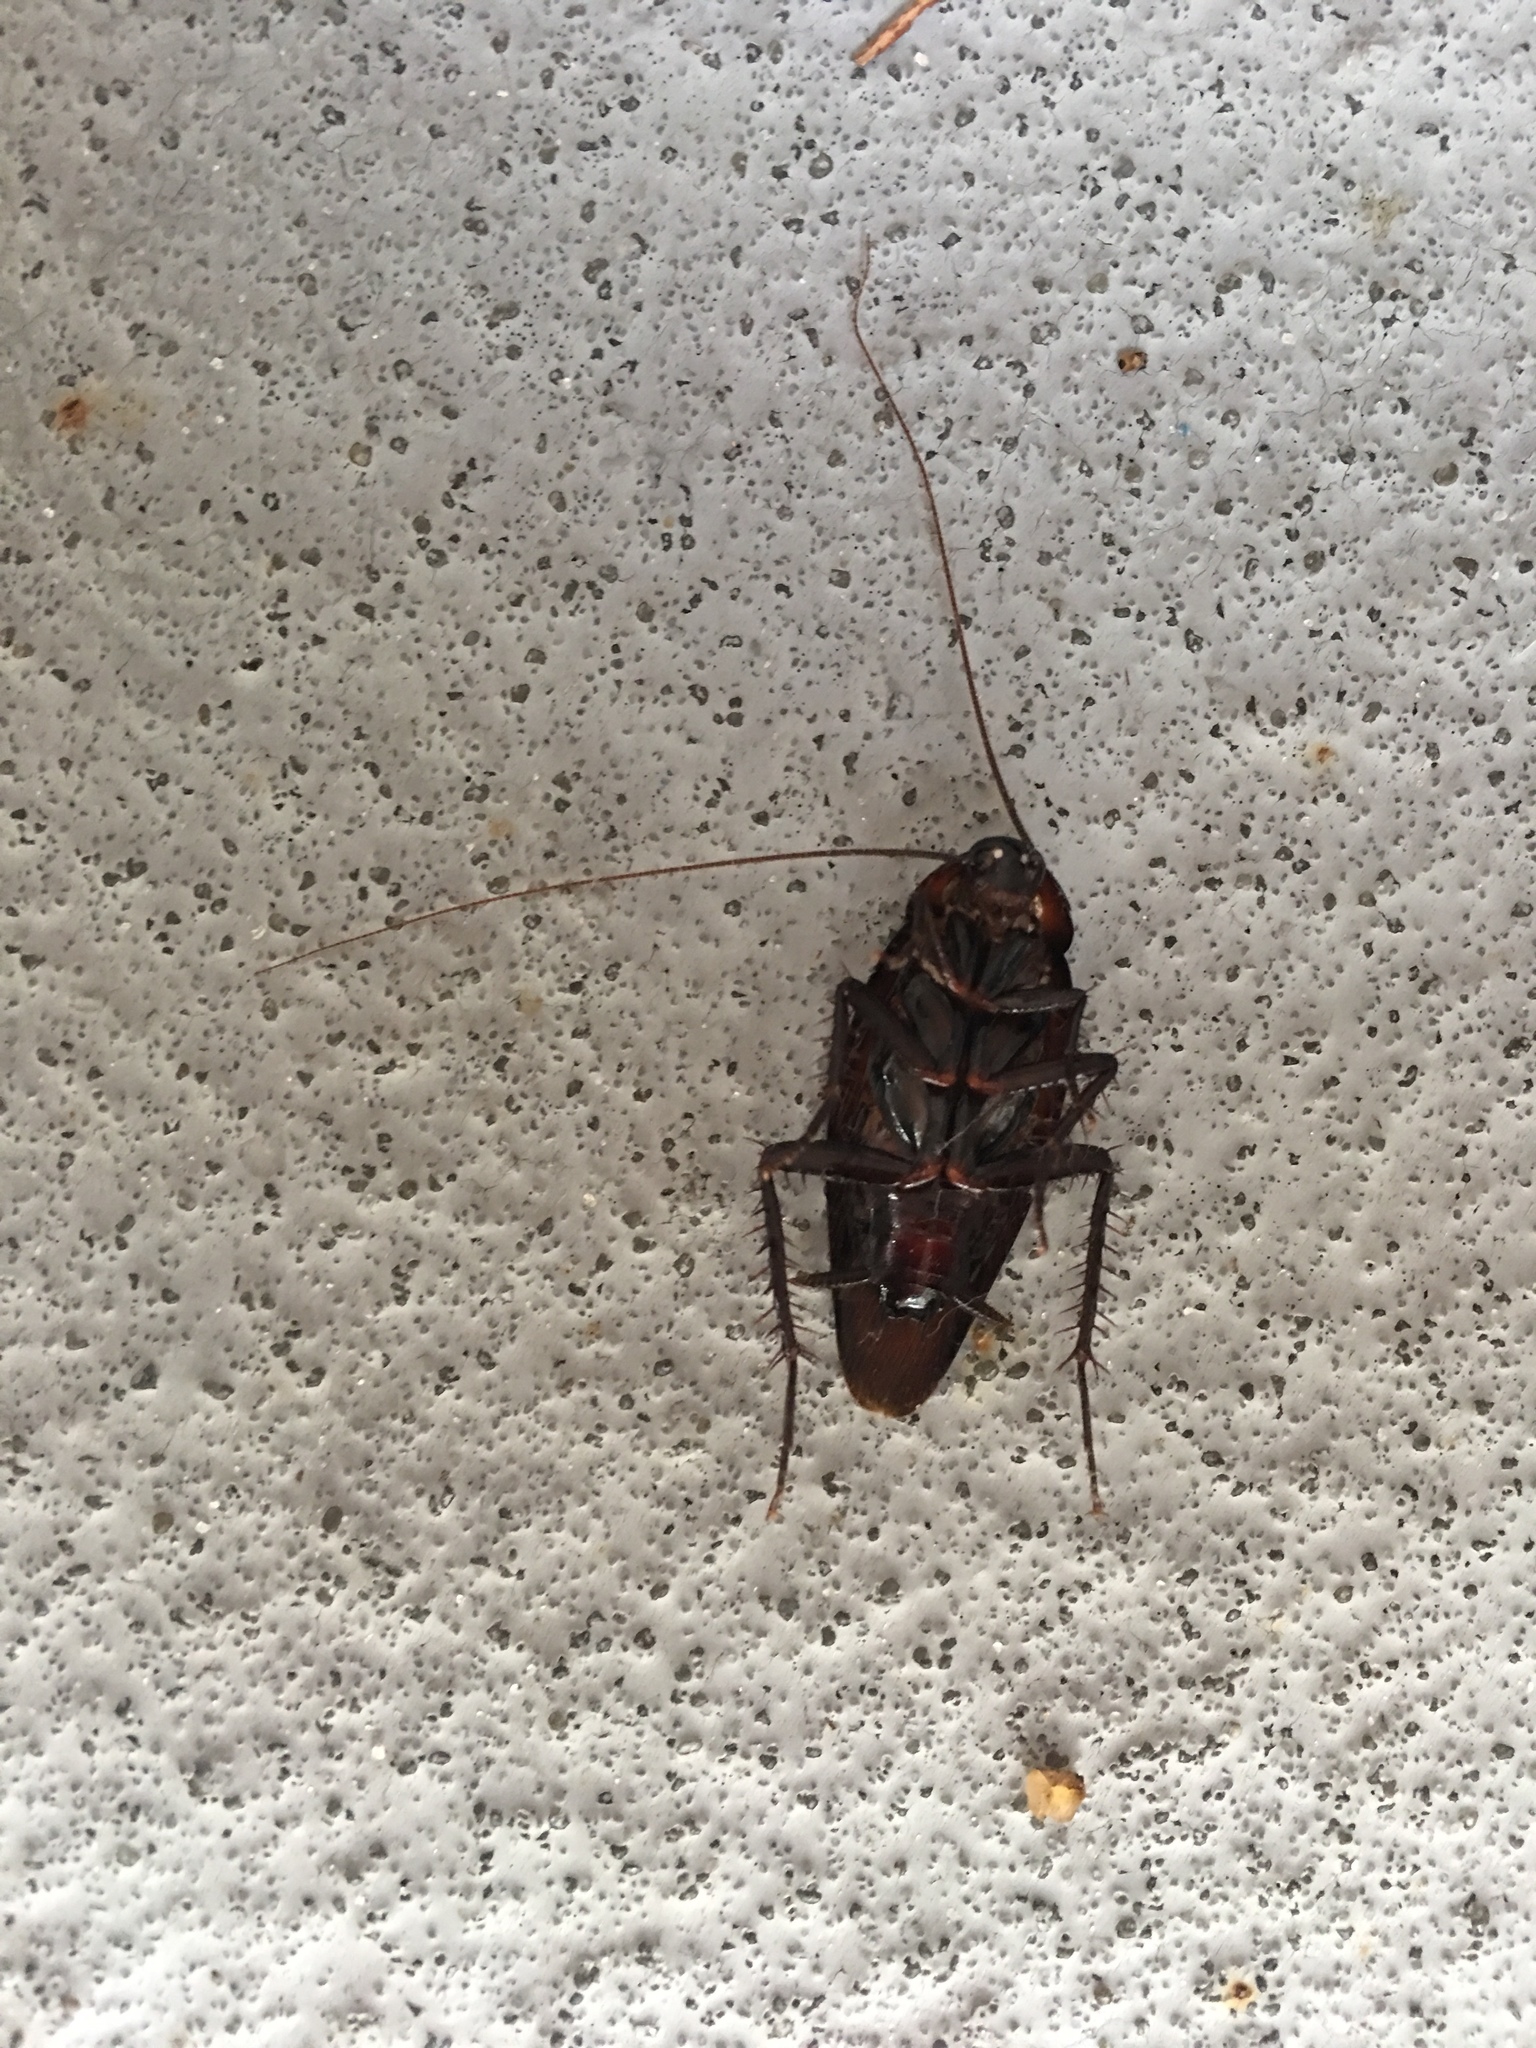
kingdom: Animalia
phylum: Arthropoda
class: Insecta
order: Blattodea
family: Blattidae
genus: Periplaneta
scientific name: Periplaneta fuliginosa
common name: Smokeybrown cockroad
